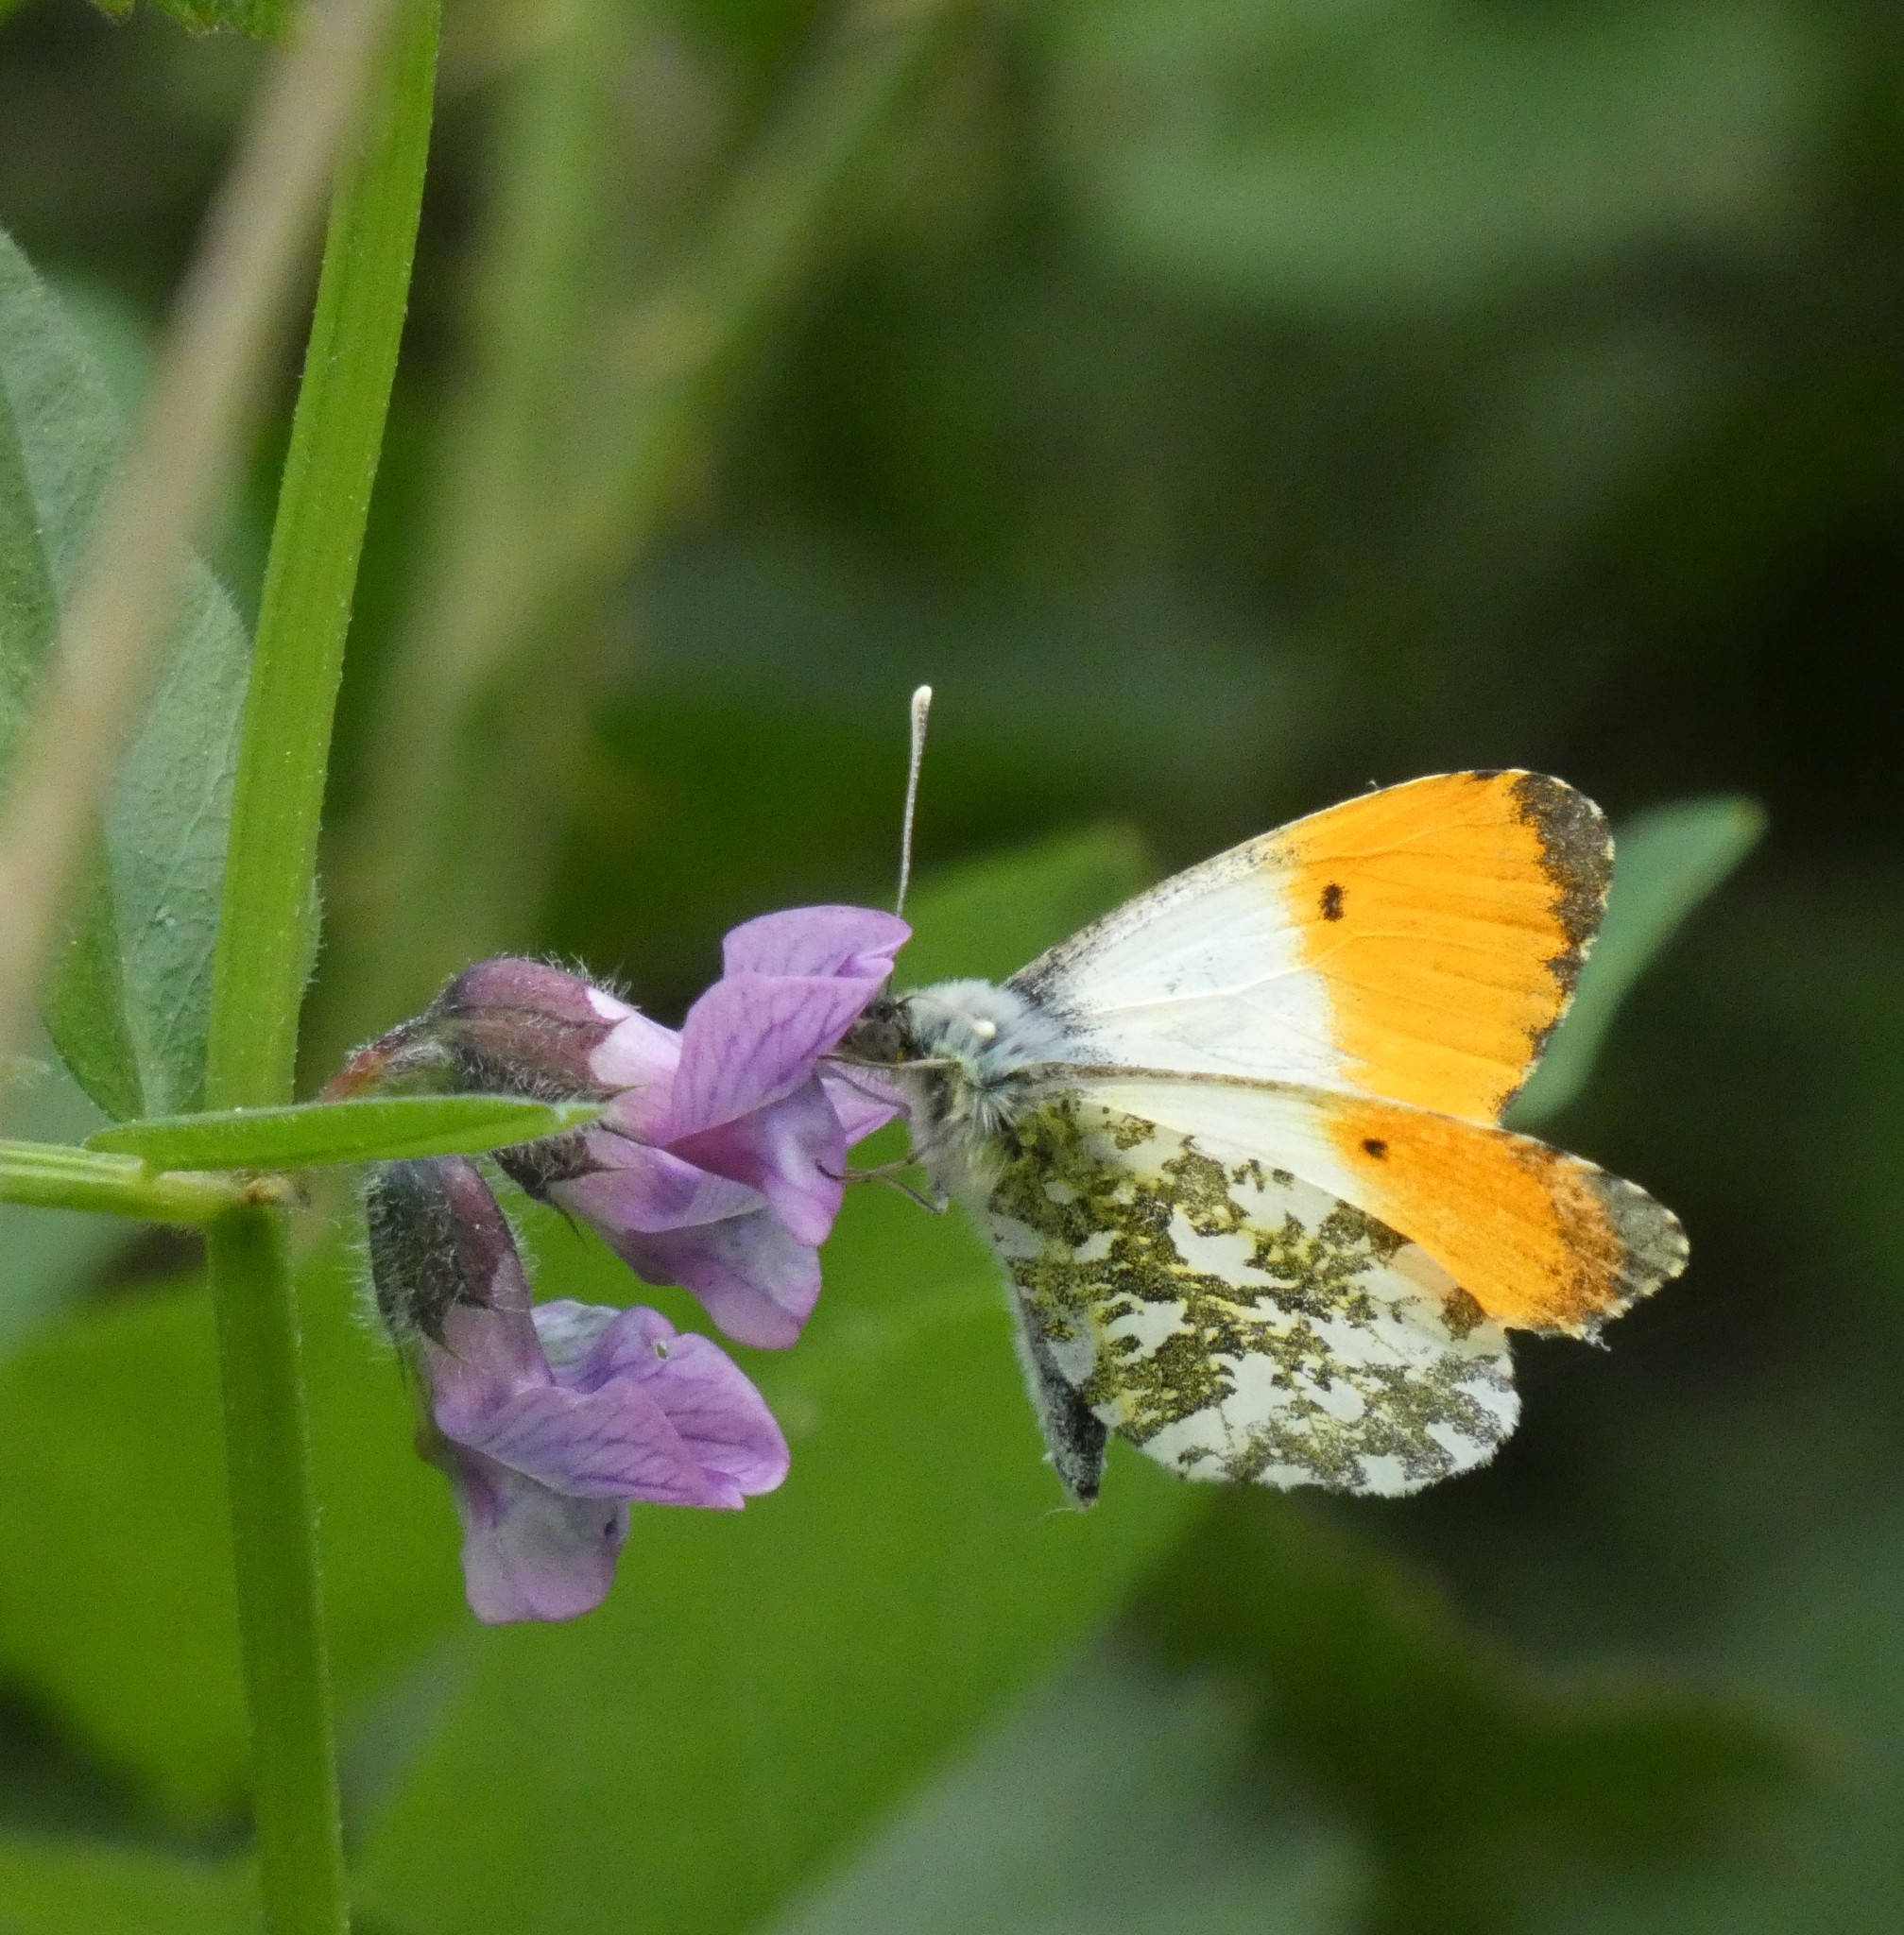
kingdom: Animalia
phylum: Arthropoda
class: Insecta
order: Lepidoptera
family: Pieridae
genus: Anthocharis
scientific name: Anthocharis cardamines
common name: Orange-tip
